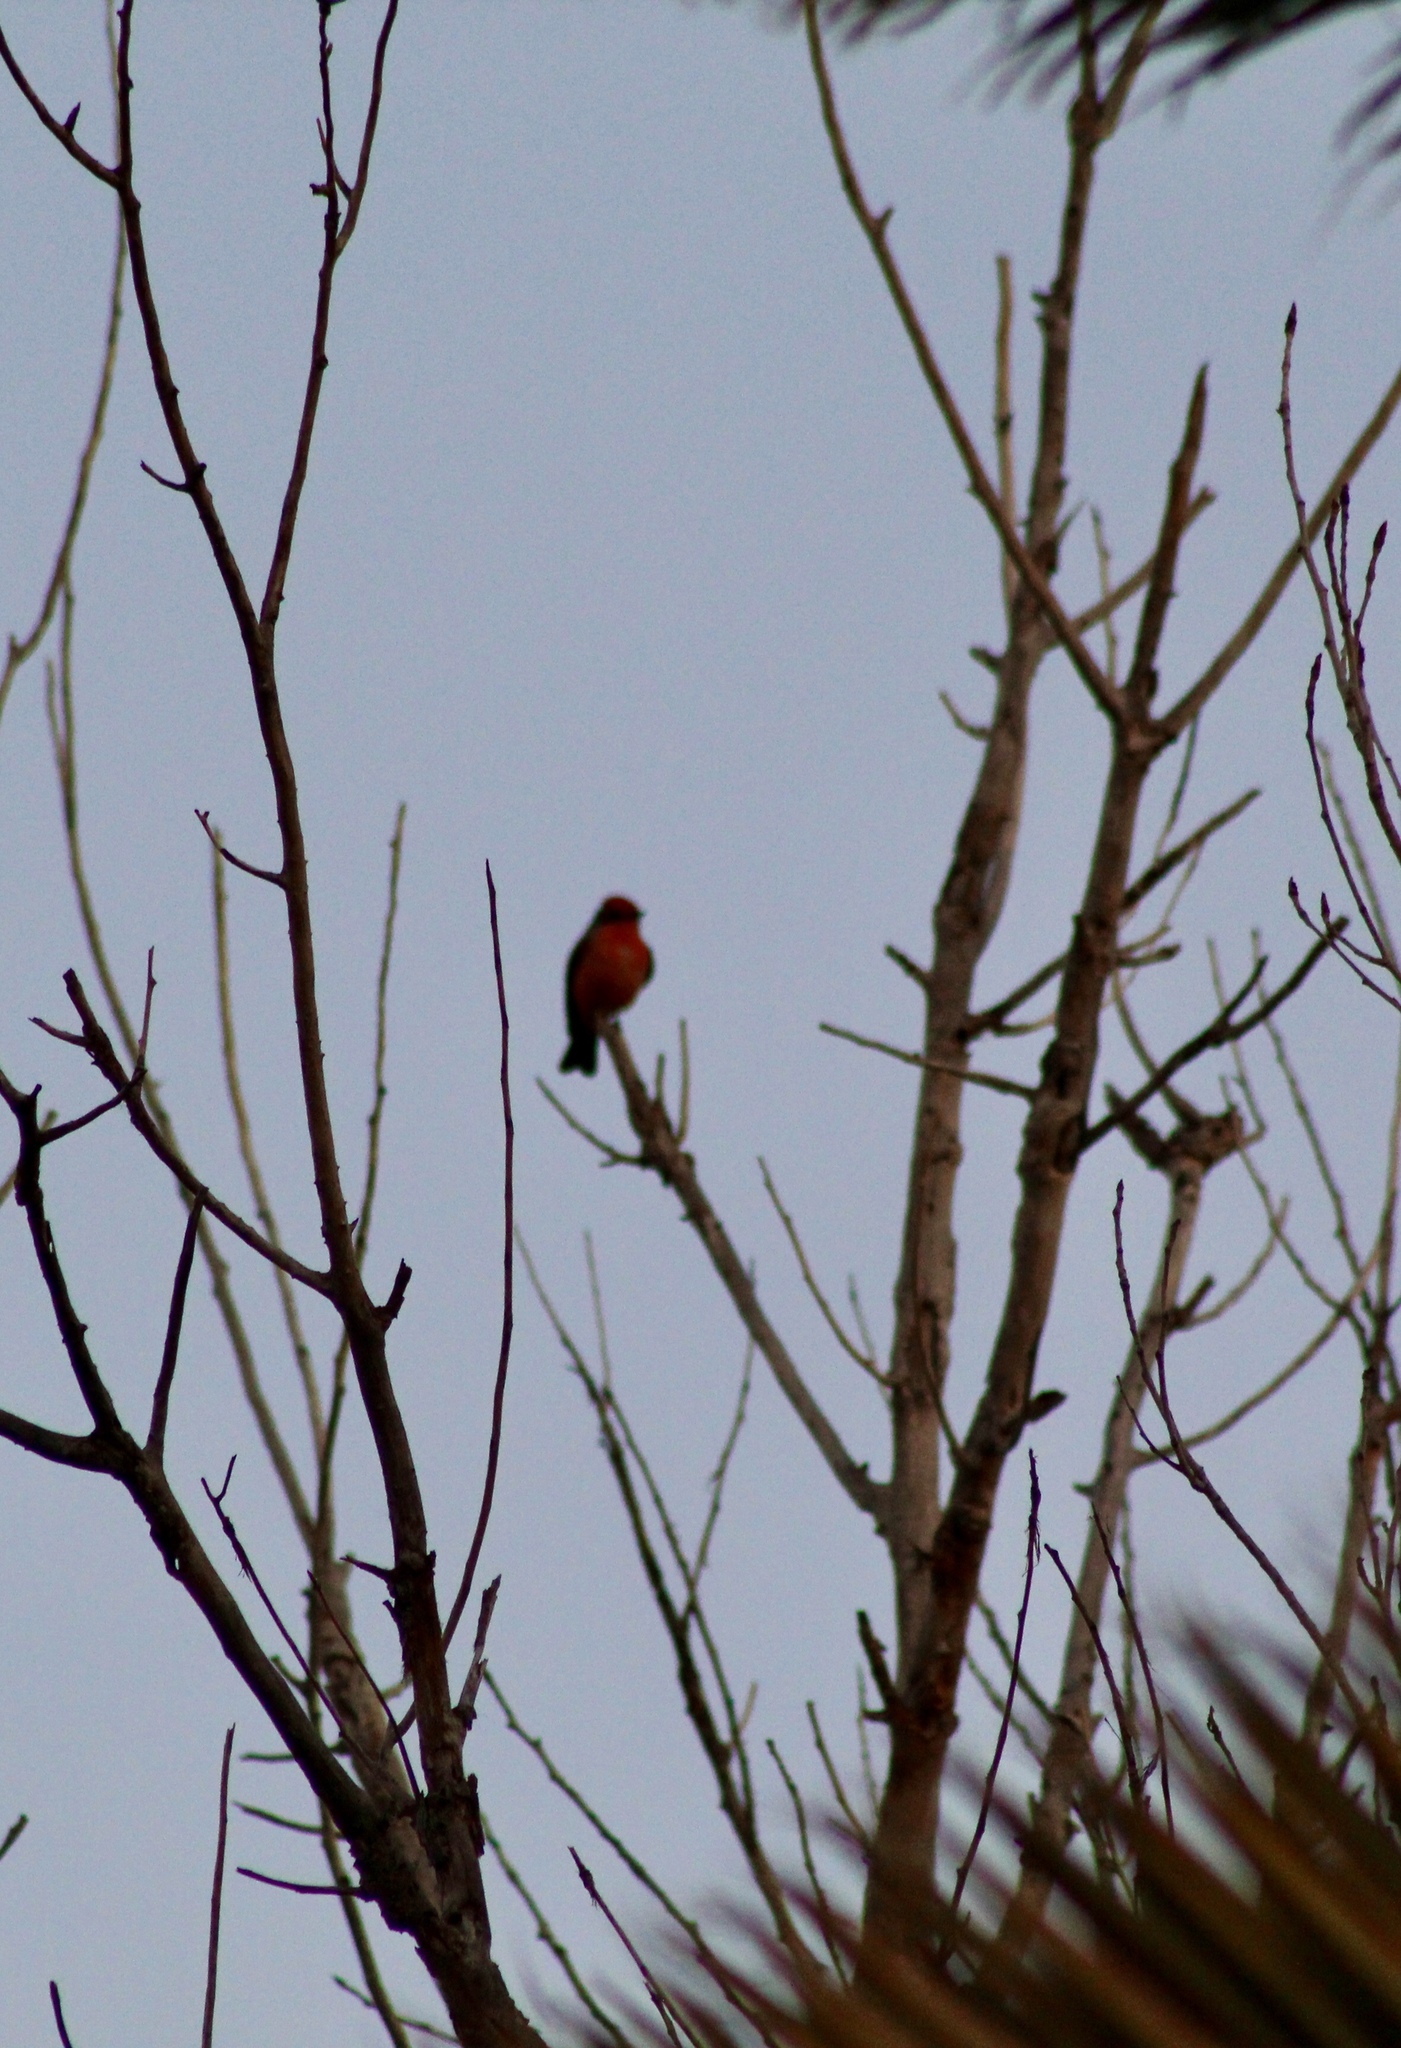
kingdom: Animalia
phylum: Chordata
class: Aves
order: Passeriformes
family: Tyrannidae
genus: Pyrocephalus
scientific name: Pyrocephalus rubinus
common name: Vermilion flycatcher
